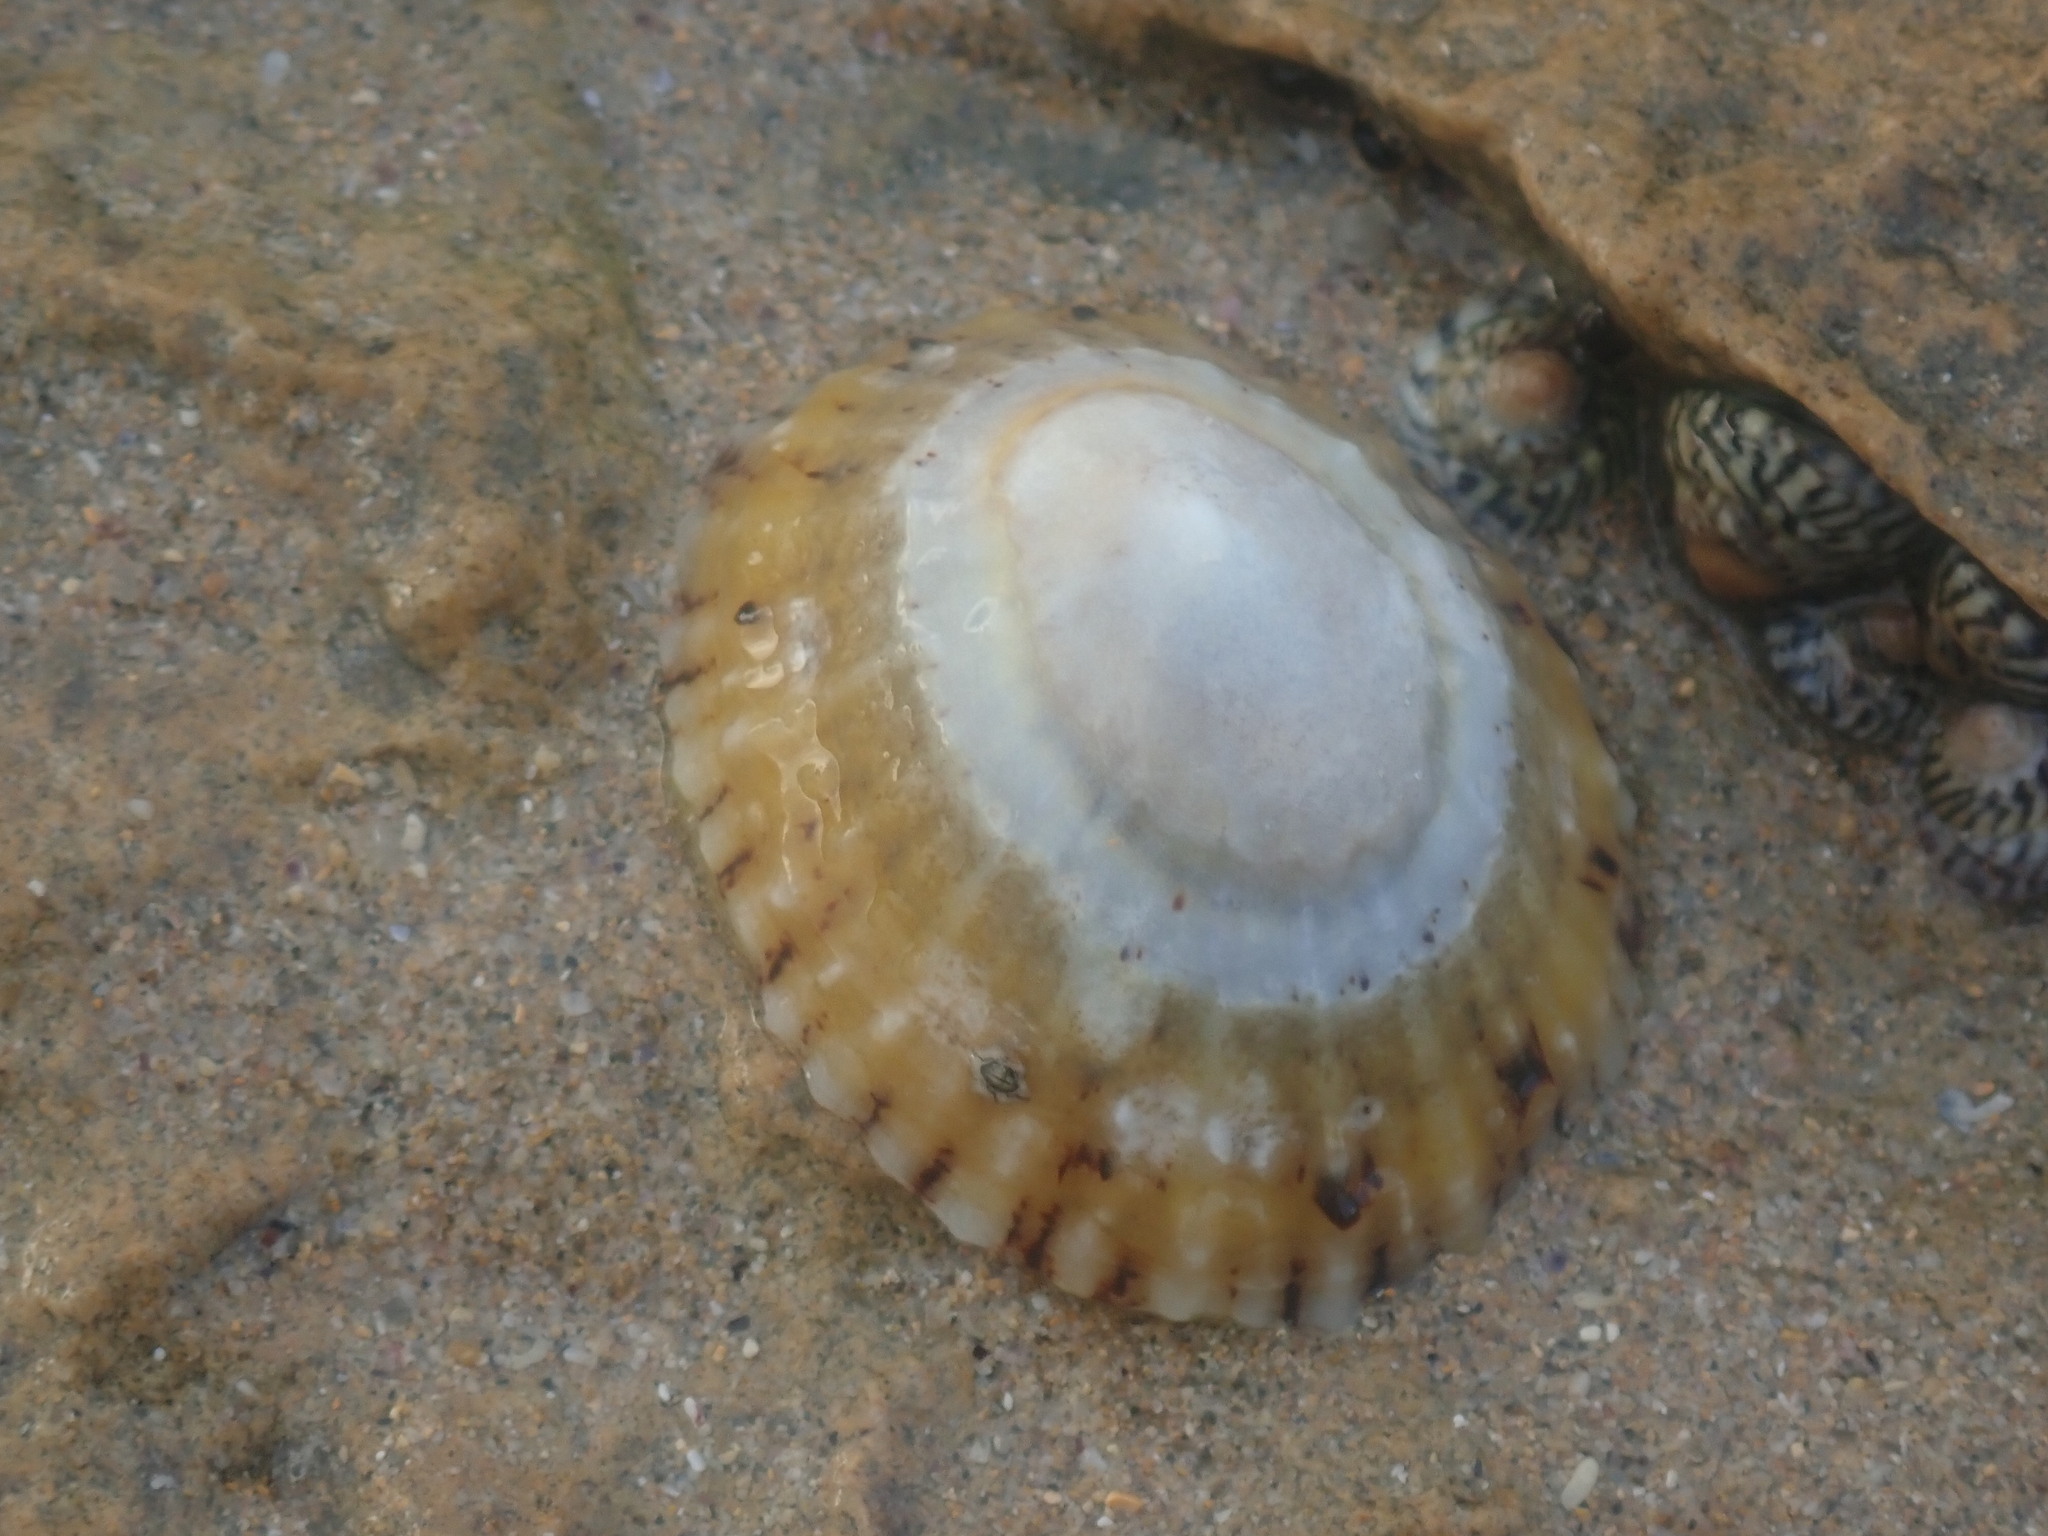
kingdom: Animalia
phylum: Mollusca
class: Gastropoda
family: Nacellidae
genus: Cellana
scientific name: Cellana tramoserica
